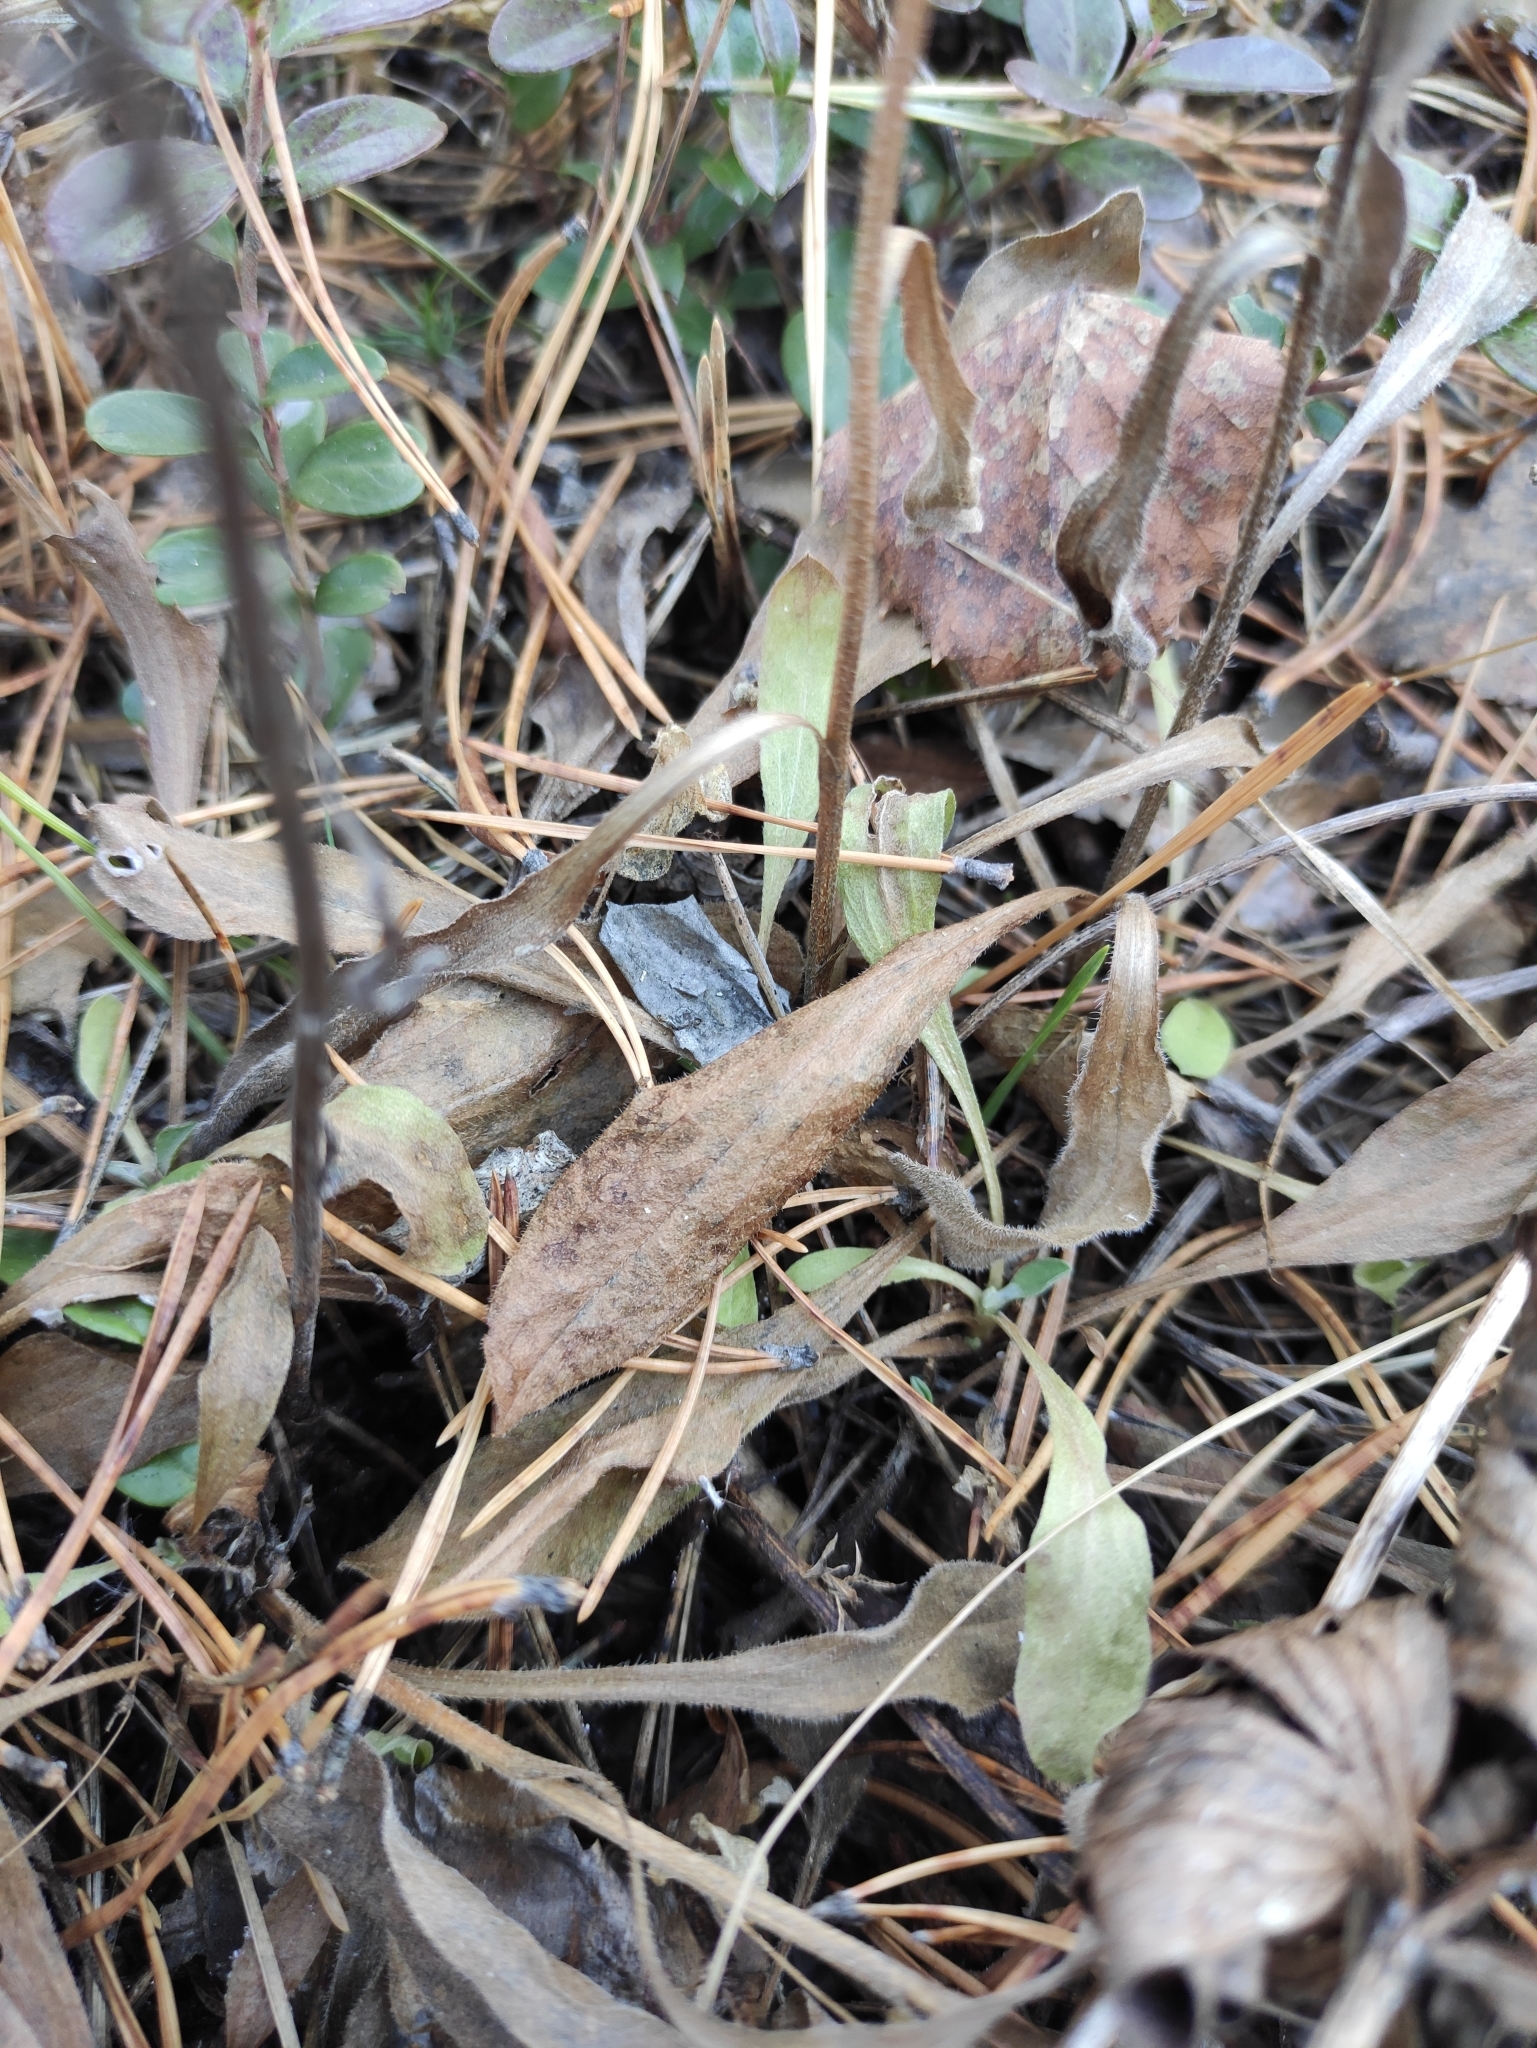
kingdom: Plantae
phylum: Tracheophyta
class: Magnoliopsida
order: Asterales
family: Asteraceae
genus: Aster
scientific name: Aster alpinus
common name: Alpine aster
